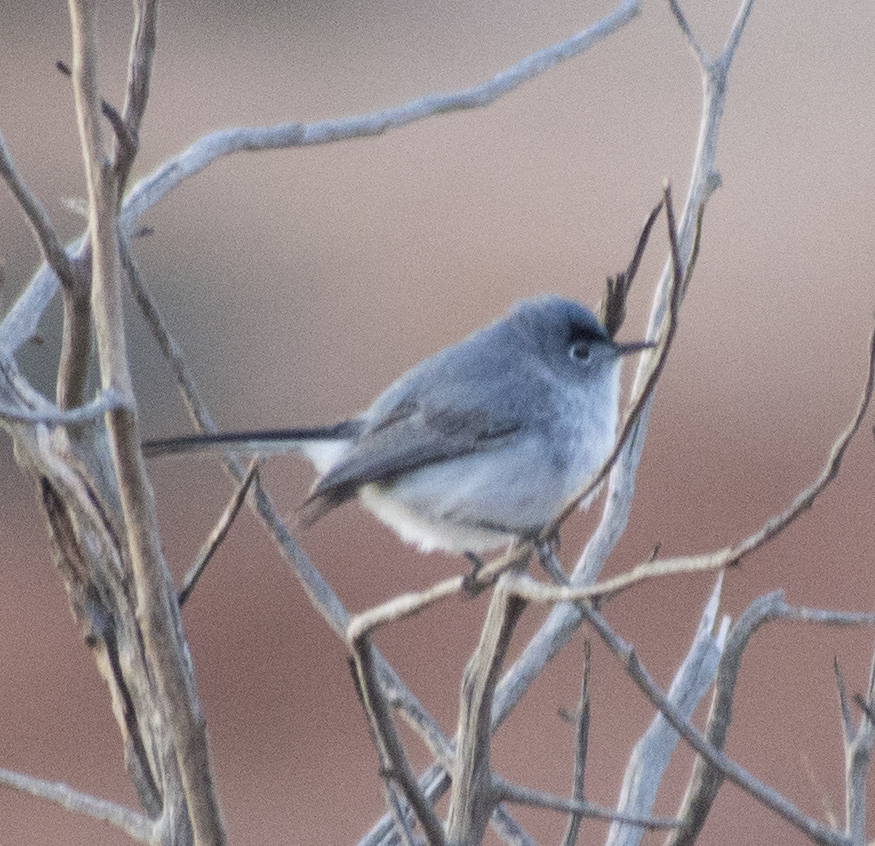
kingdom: Animalia
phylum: Chordata
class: Aves
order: Passeriformes
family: Polioptilidae
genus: Polioptila
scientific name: Polioptila caerulea
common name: Blue-gray gnatcatcher
